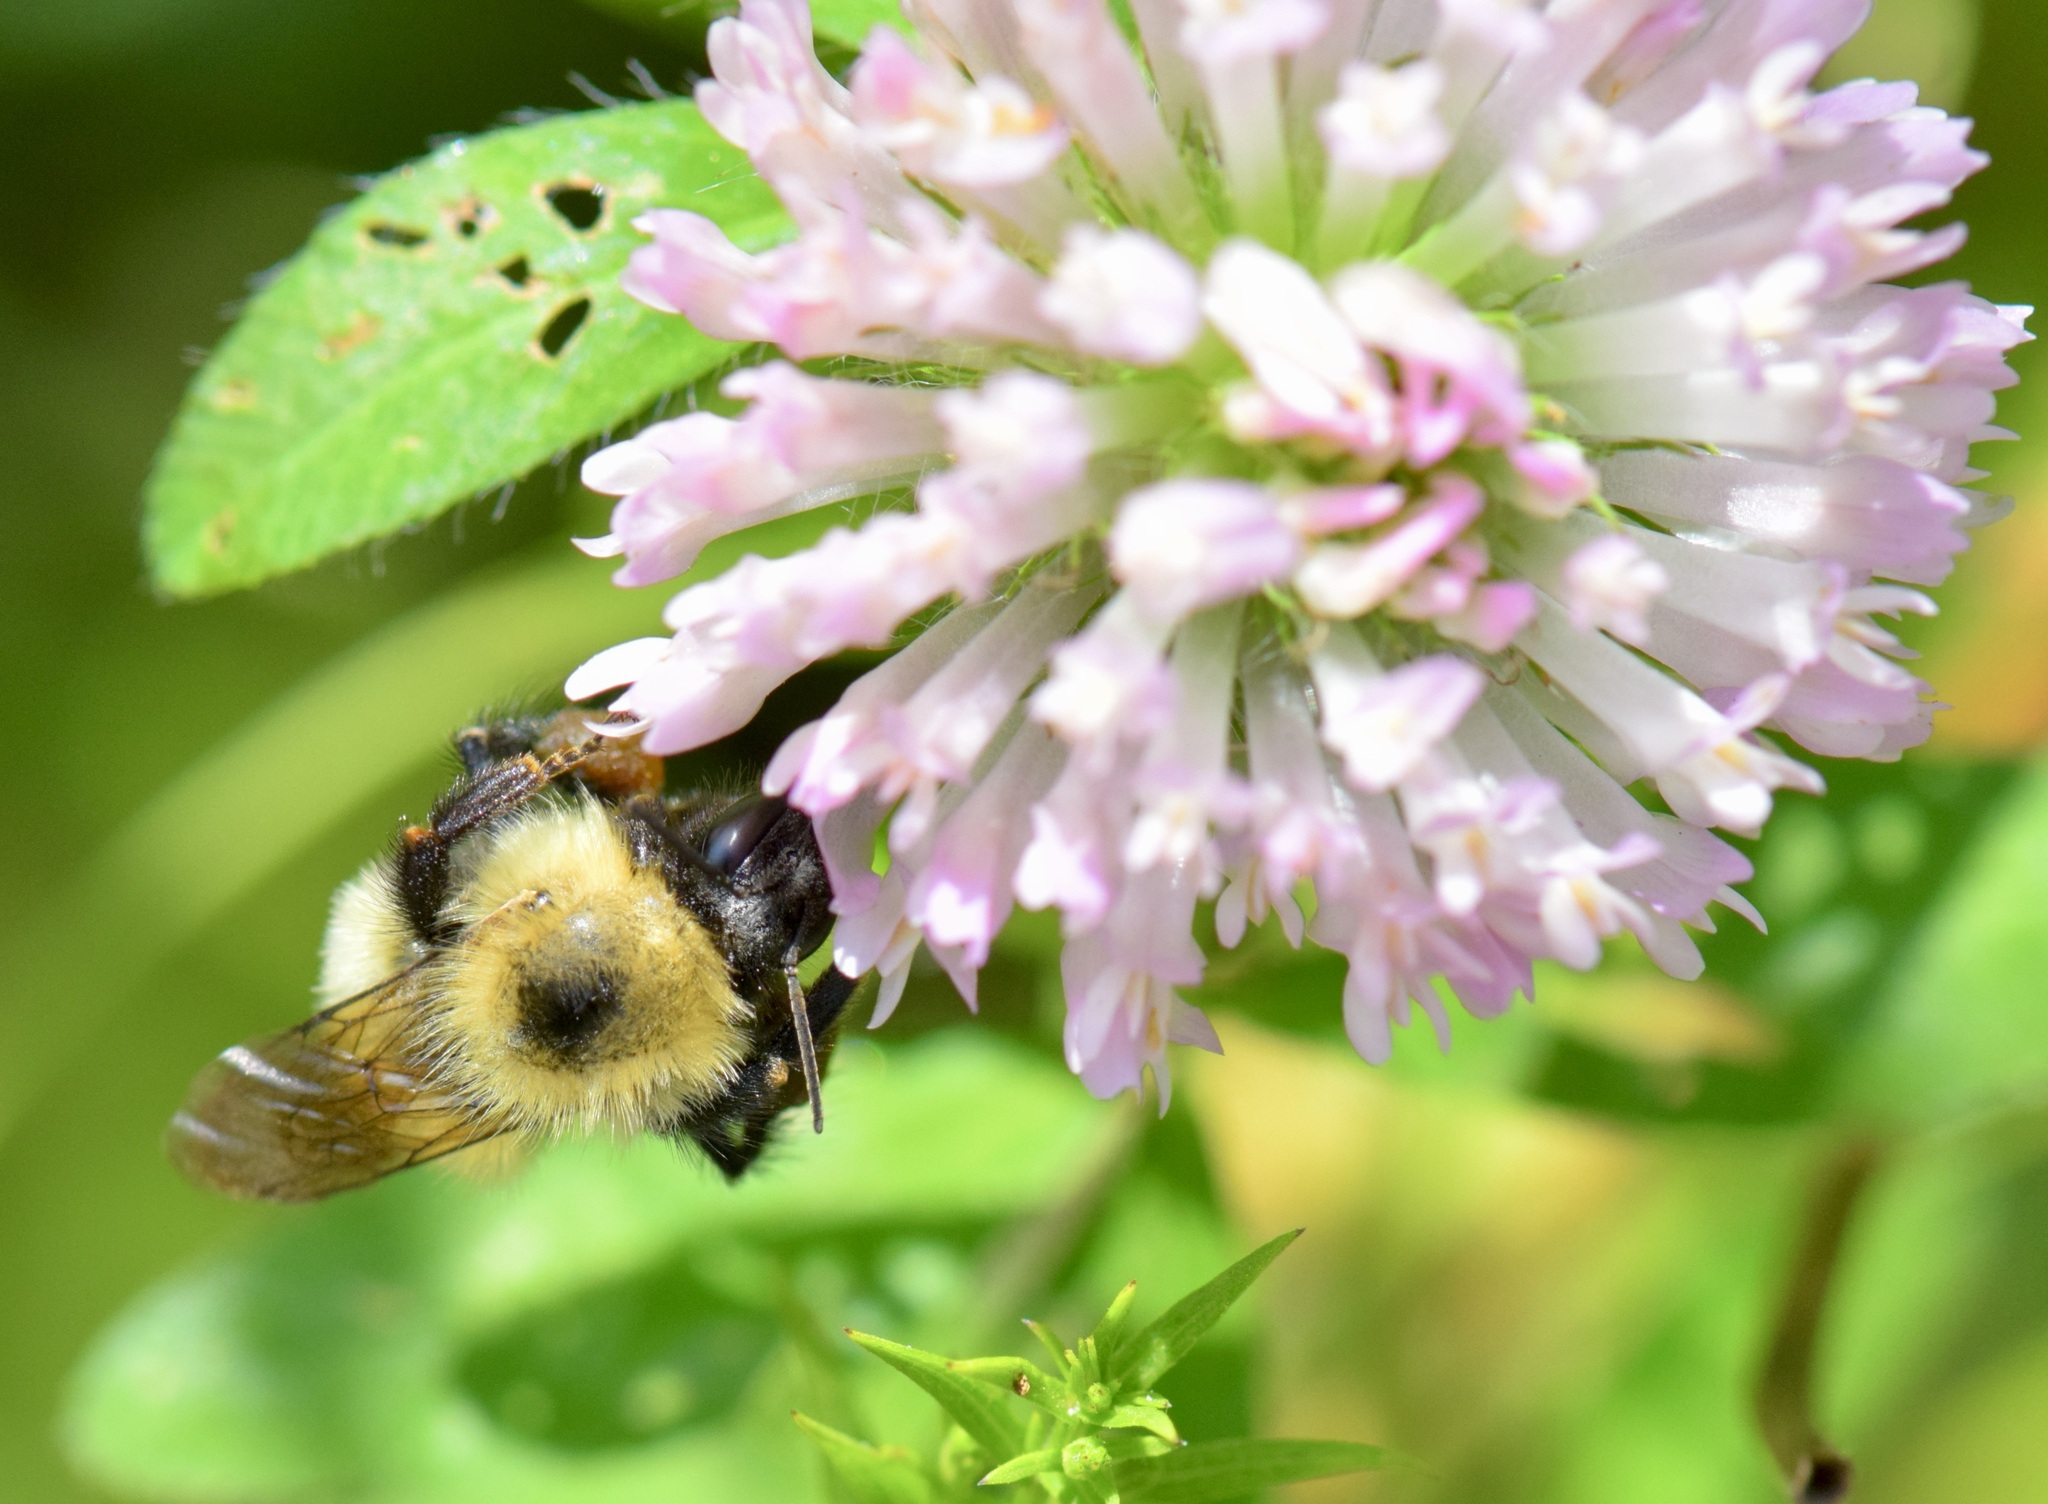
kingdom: Animalia
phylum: Arthropoda
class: Insecta
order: Hymenoptera
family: Apidae
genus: Pyrobombus
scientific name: Pyrobombus
